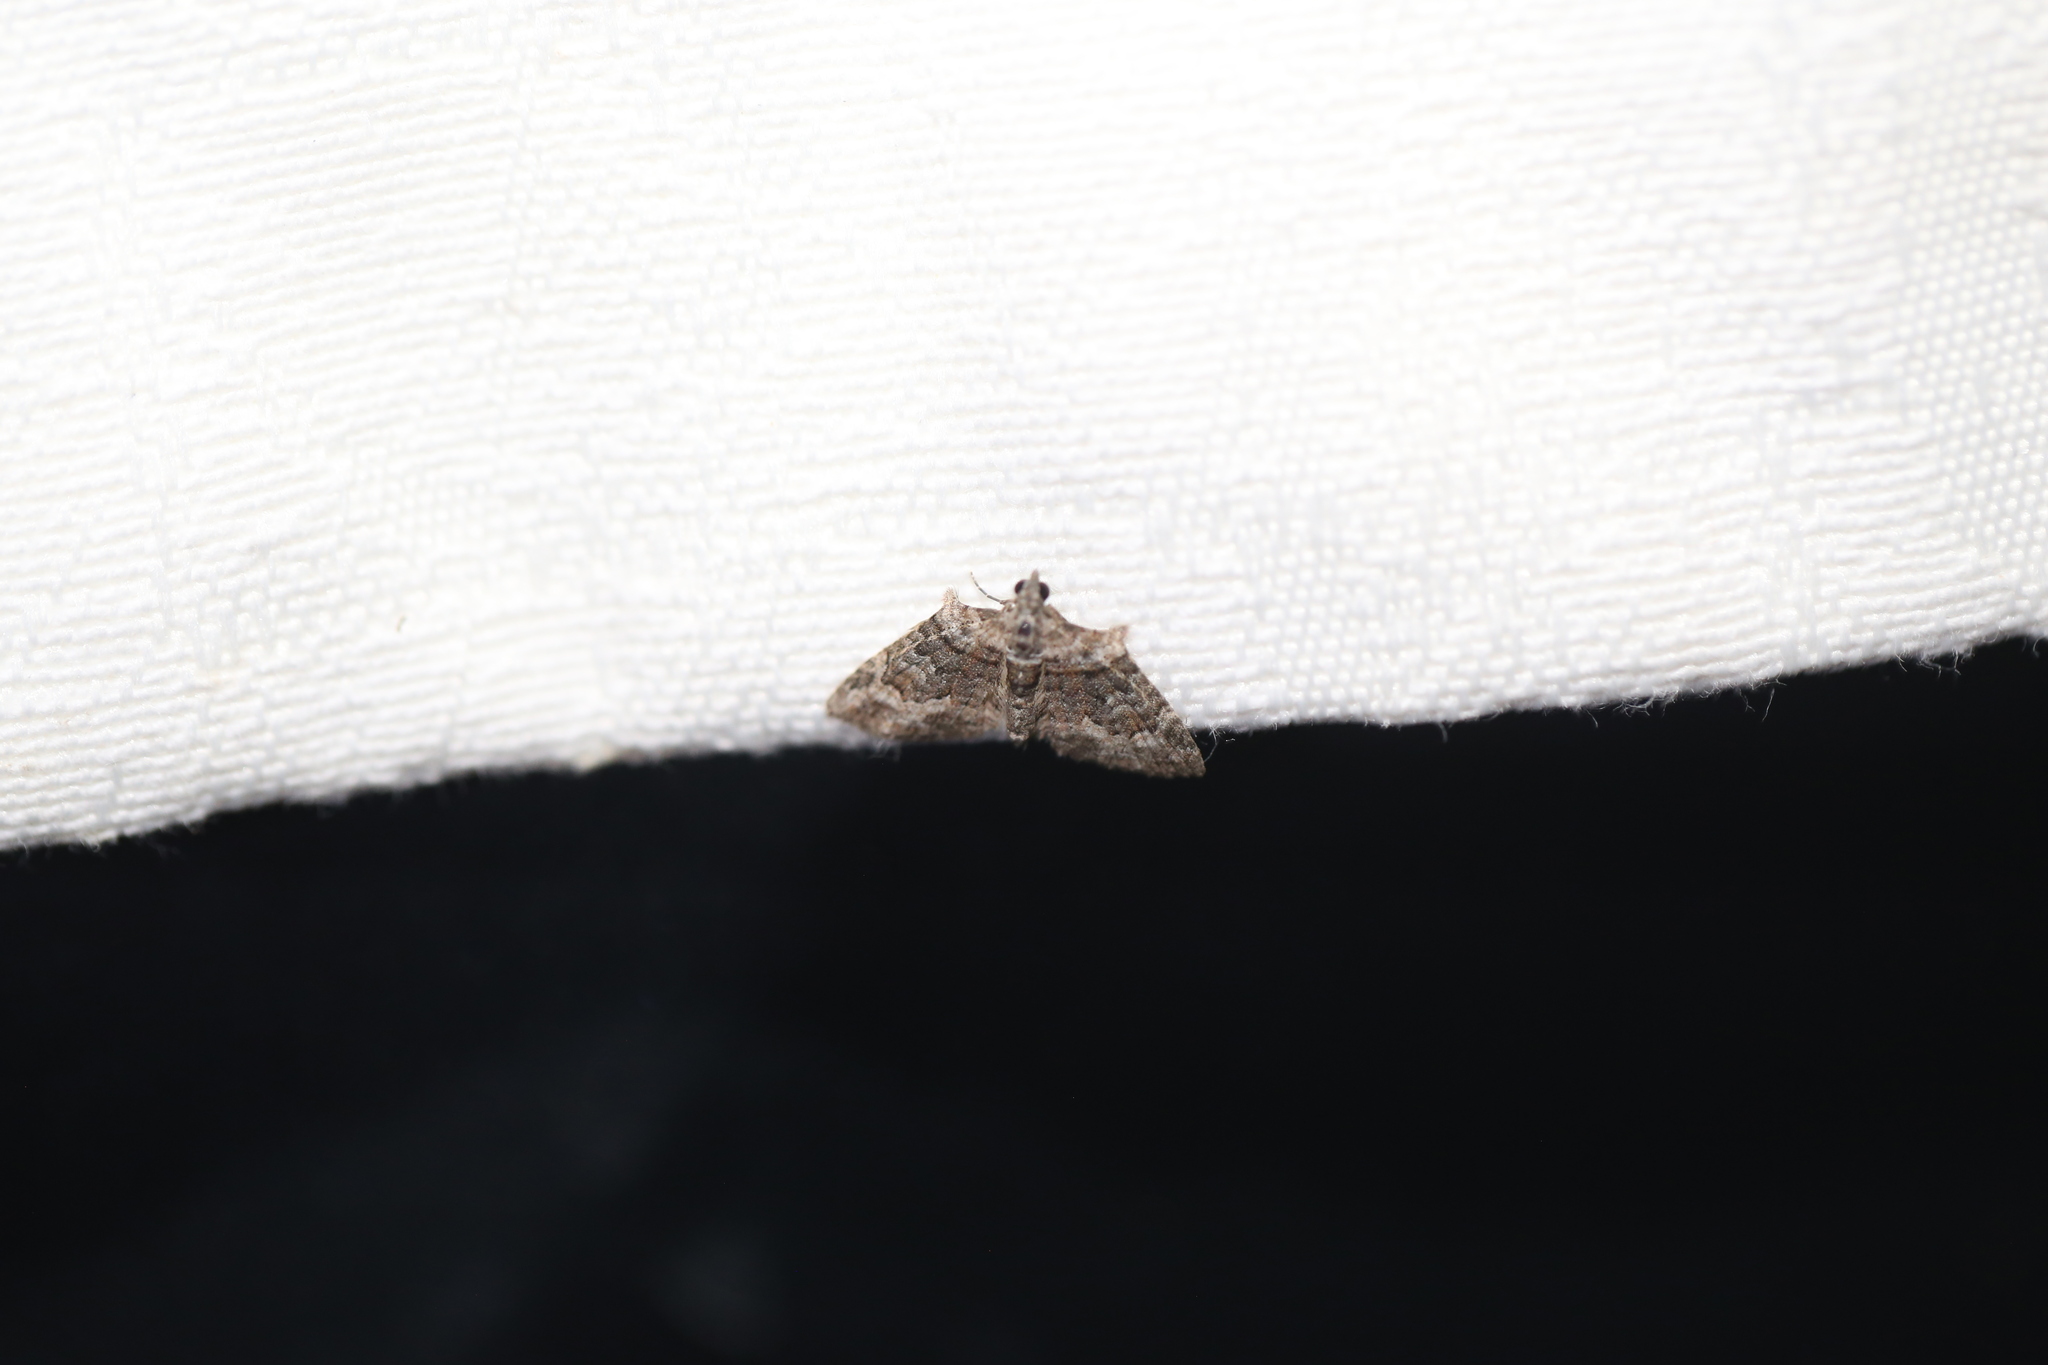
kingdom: Animalia
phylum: Arthropoda
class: Insecta
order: Lepidoptera
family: Geometridae
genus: Phrissogonus
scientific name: Phrissogonus laticostata
